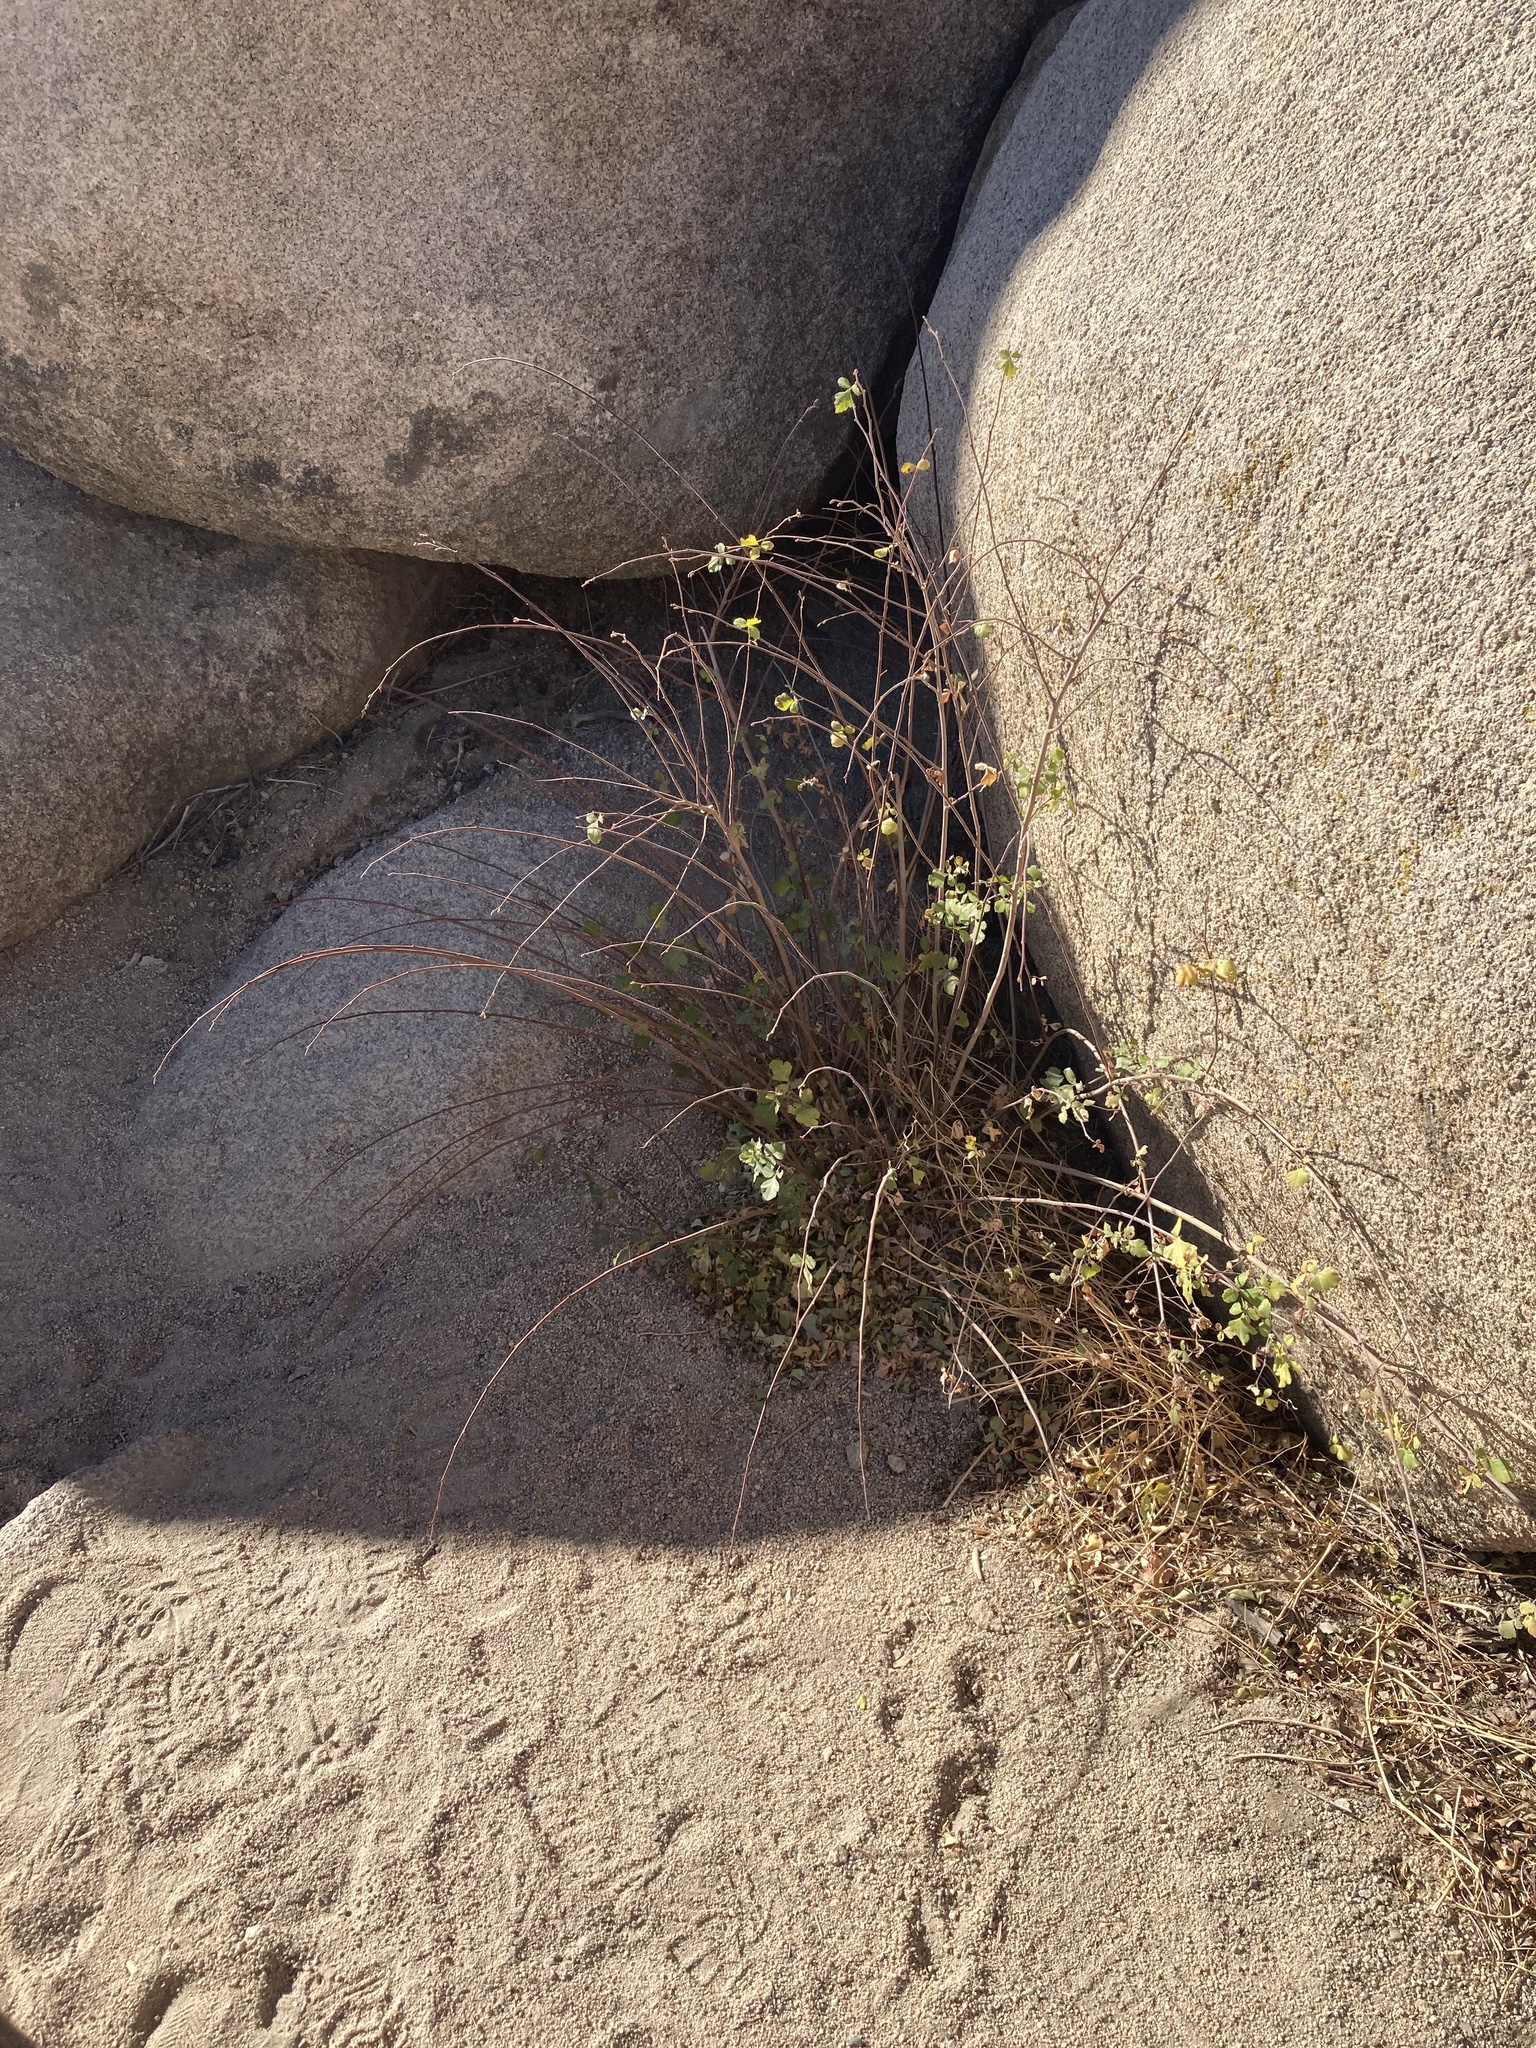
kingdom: Plantae
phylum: Tracheophyta
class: Magnoliopsida
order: Sapindales
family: Anacardiaceae
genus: Rhus
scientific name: Rhus aromatica
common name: Aromatic sumac
